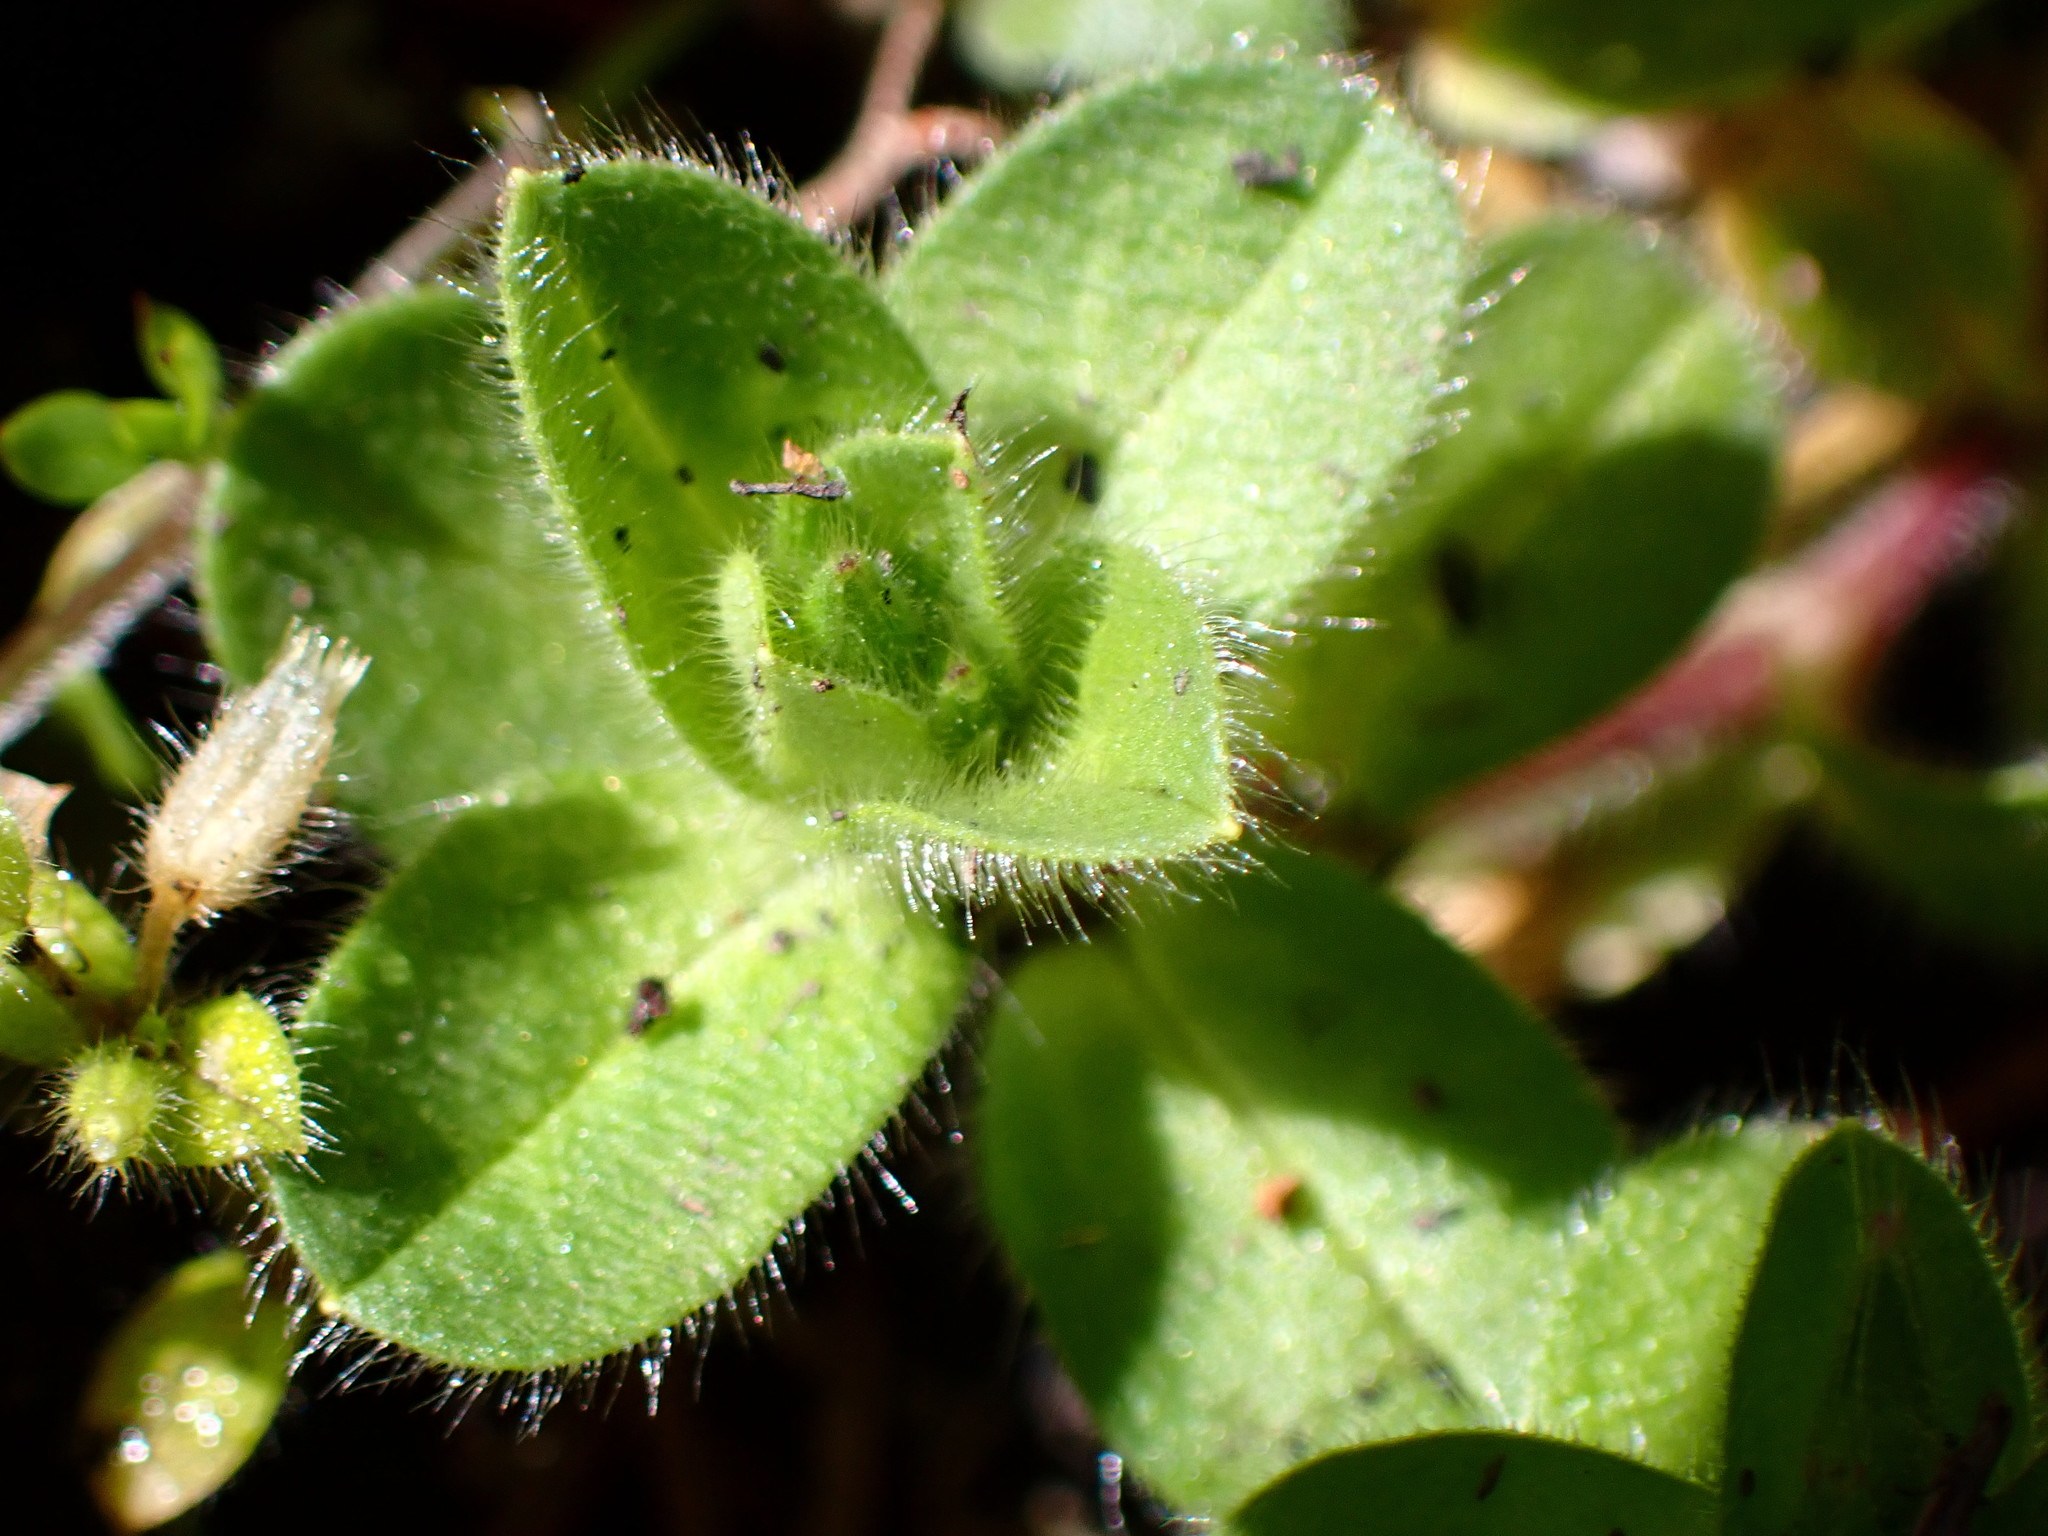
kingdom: Plantae
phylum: Tracheophyta
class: Magnoliopsida
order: Caryophyllales
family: Caryophyllaceae
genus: Cerastium
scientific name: Cerastium glomeratum
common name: Sticky chickweed
